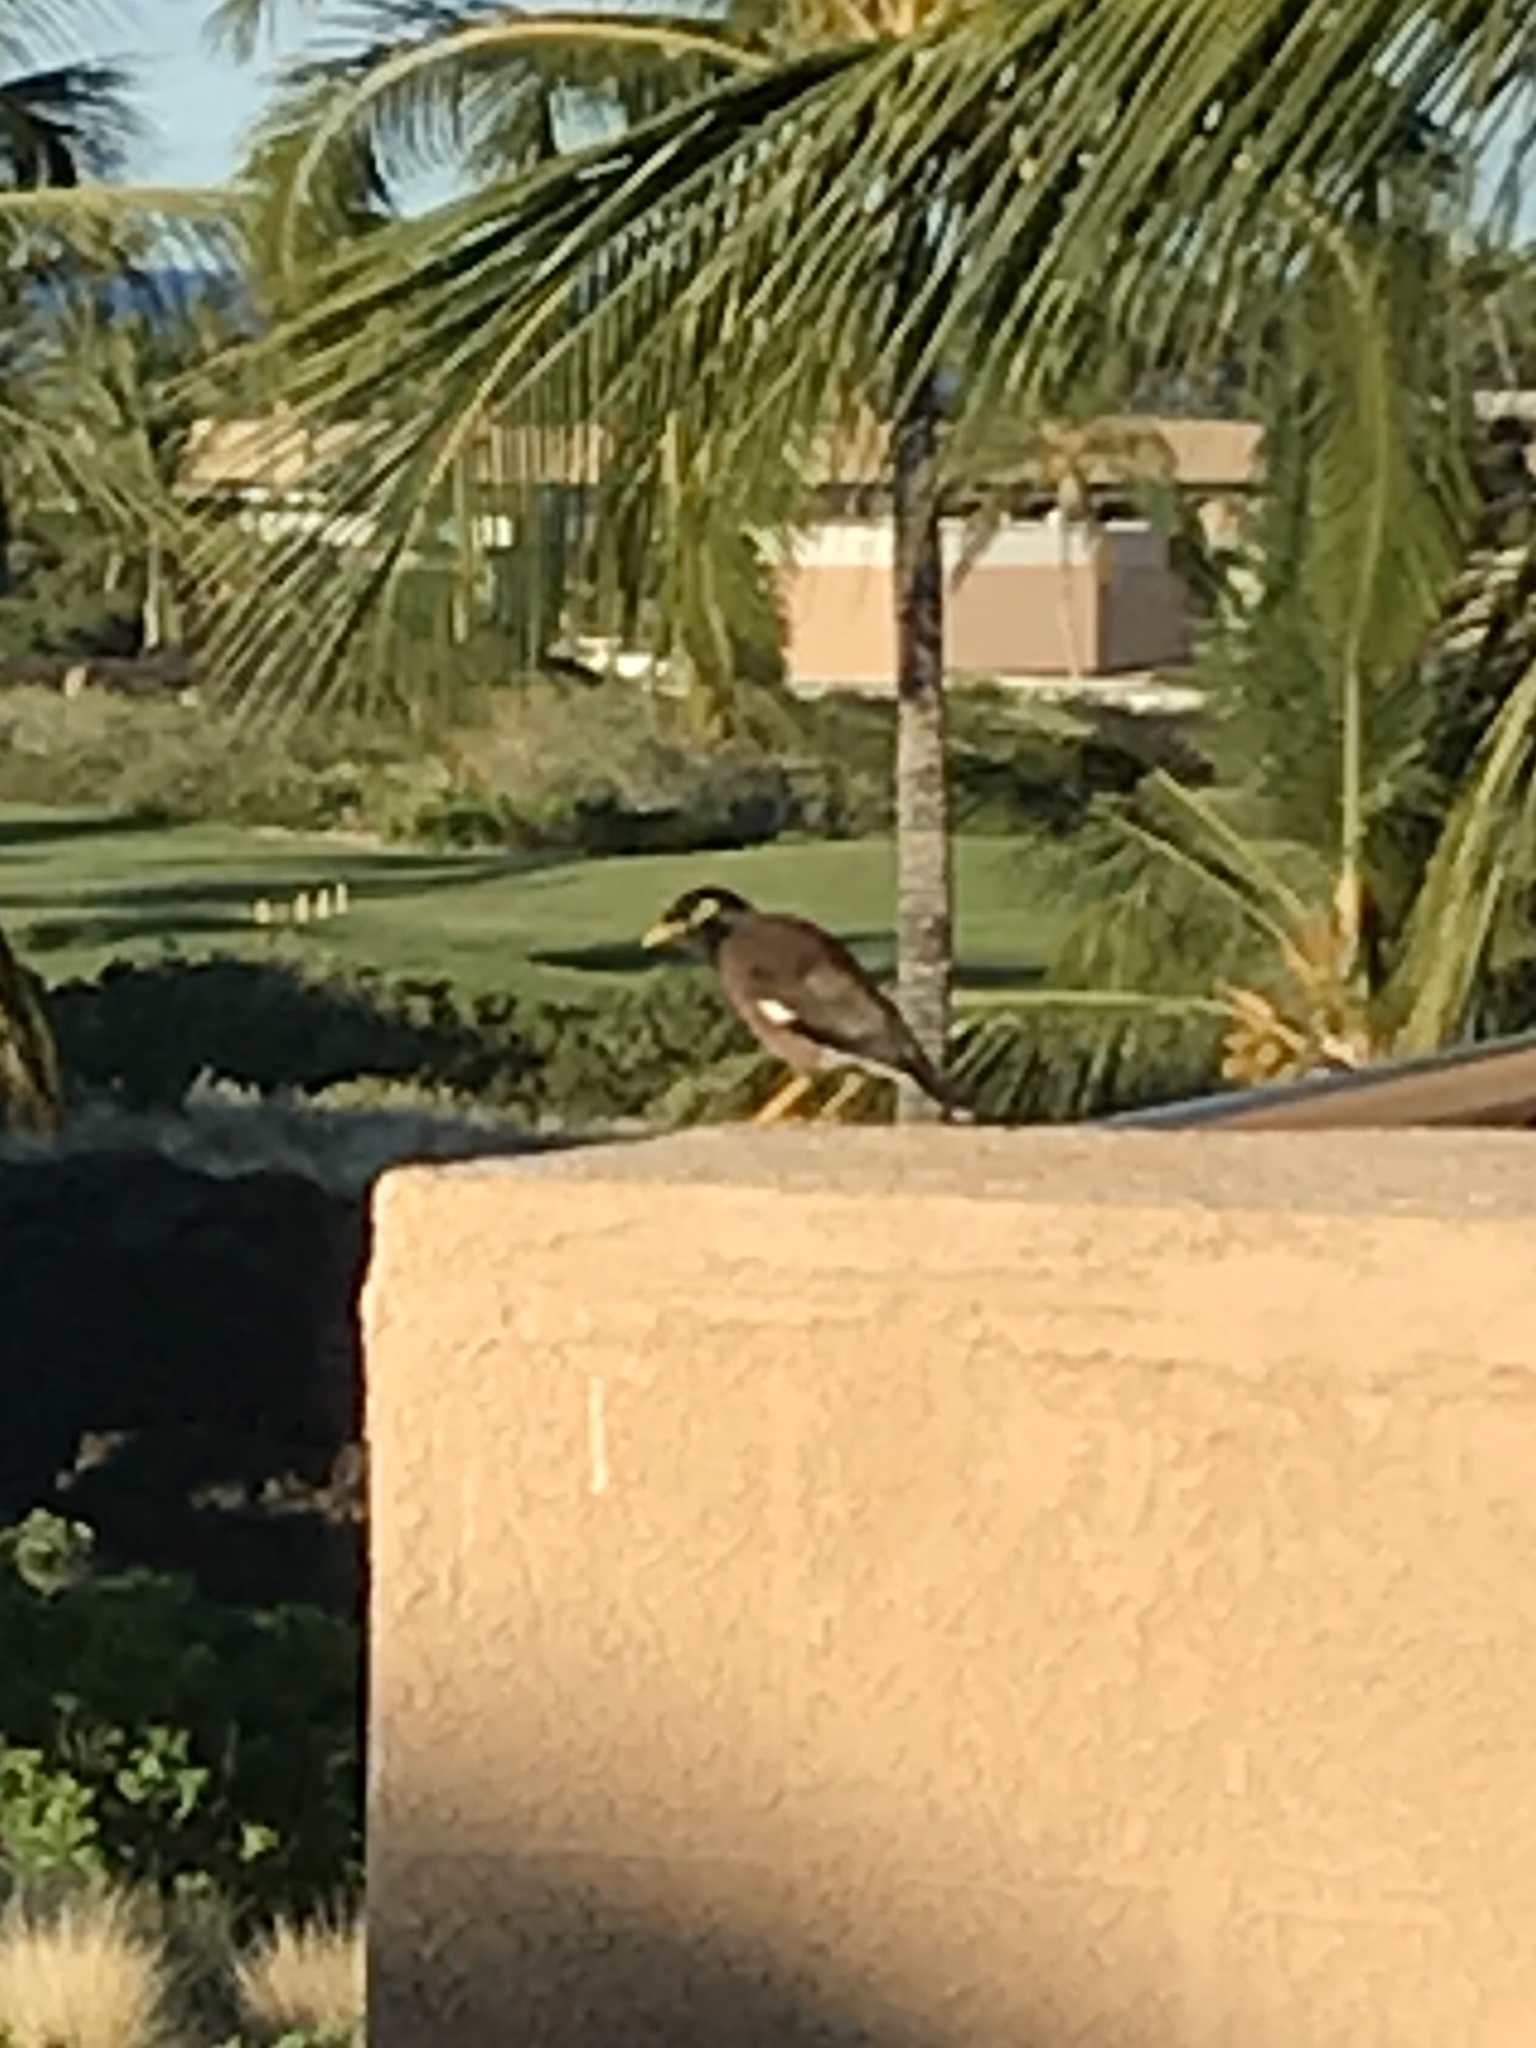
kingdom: Animalia
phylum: Chordata
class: Aves
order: Passeriformes
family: Sturnidae
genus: Acridotheres
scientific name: Acridotheres tristis
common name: Common myna
